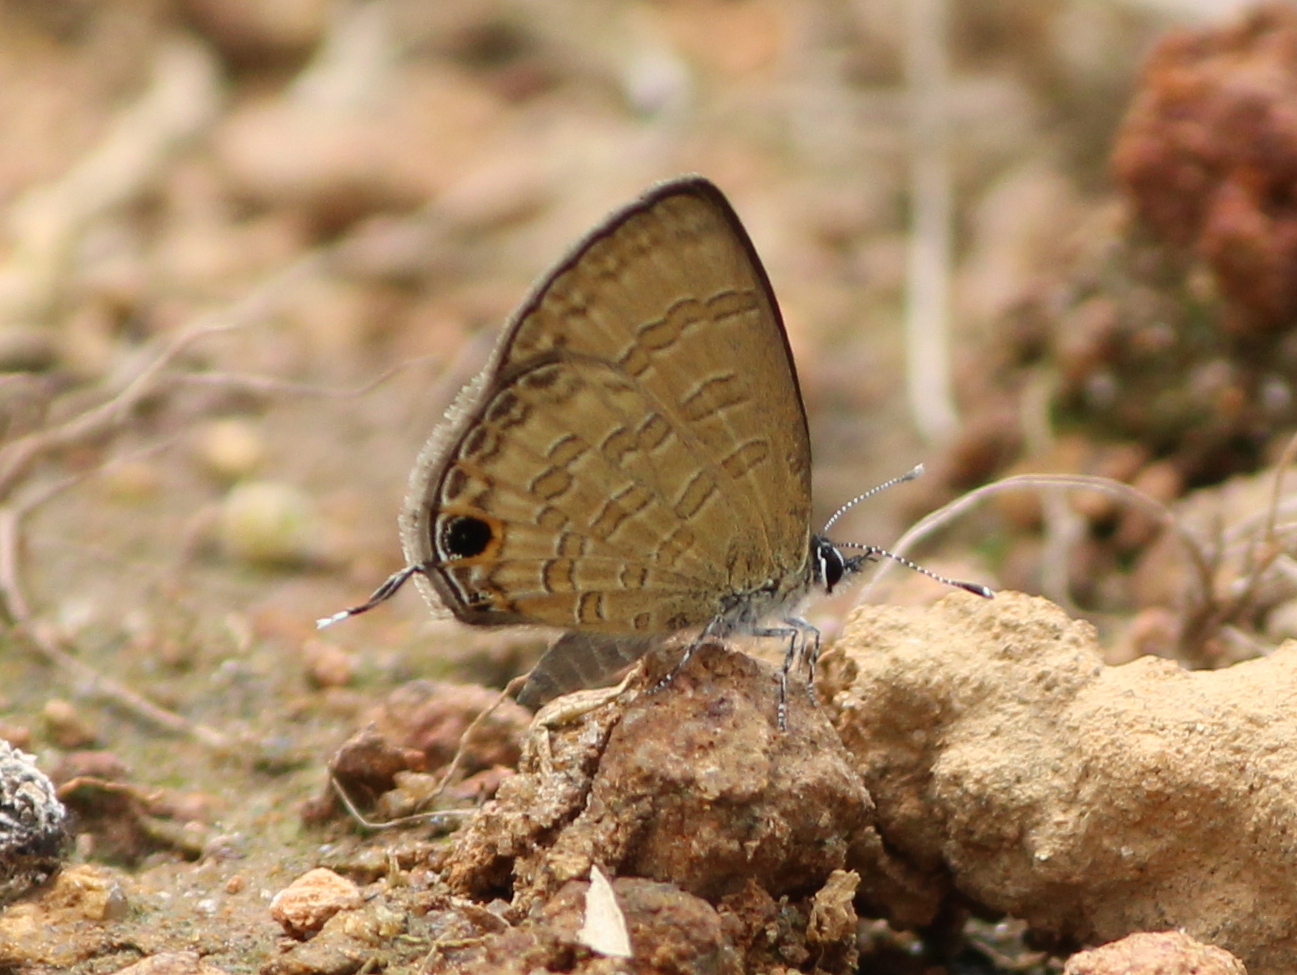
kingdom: Animalia
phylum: Arthropoda
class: Insecta
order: Lepidoptera
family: Lycaenidae
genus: Prosotas
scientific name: Prosotas nora
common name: Common line blue
